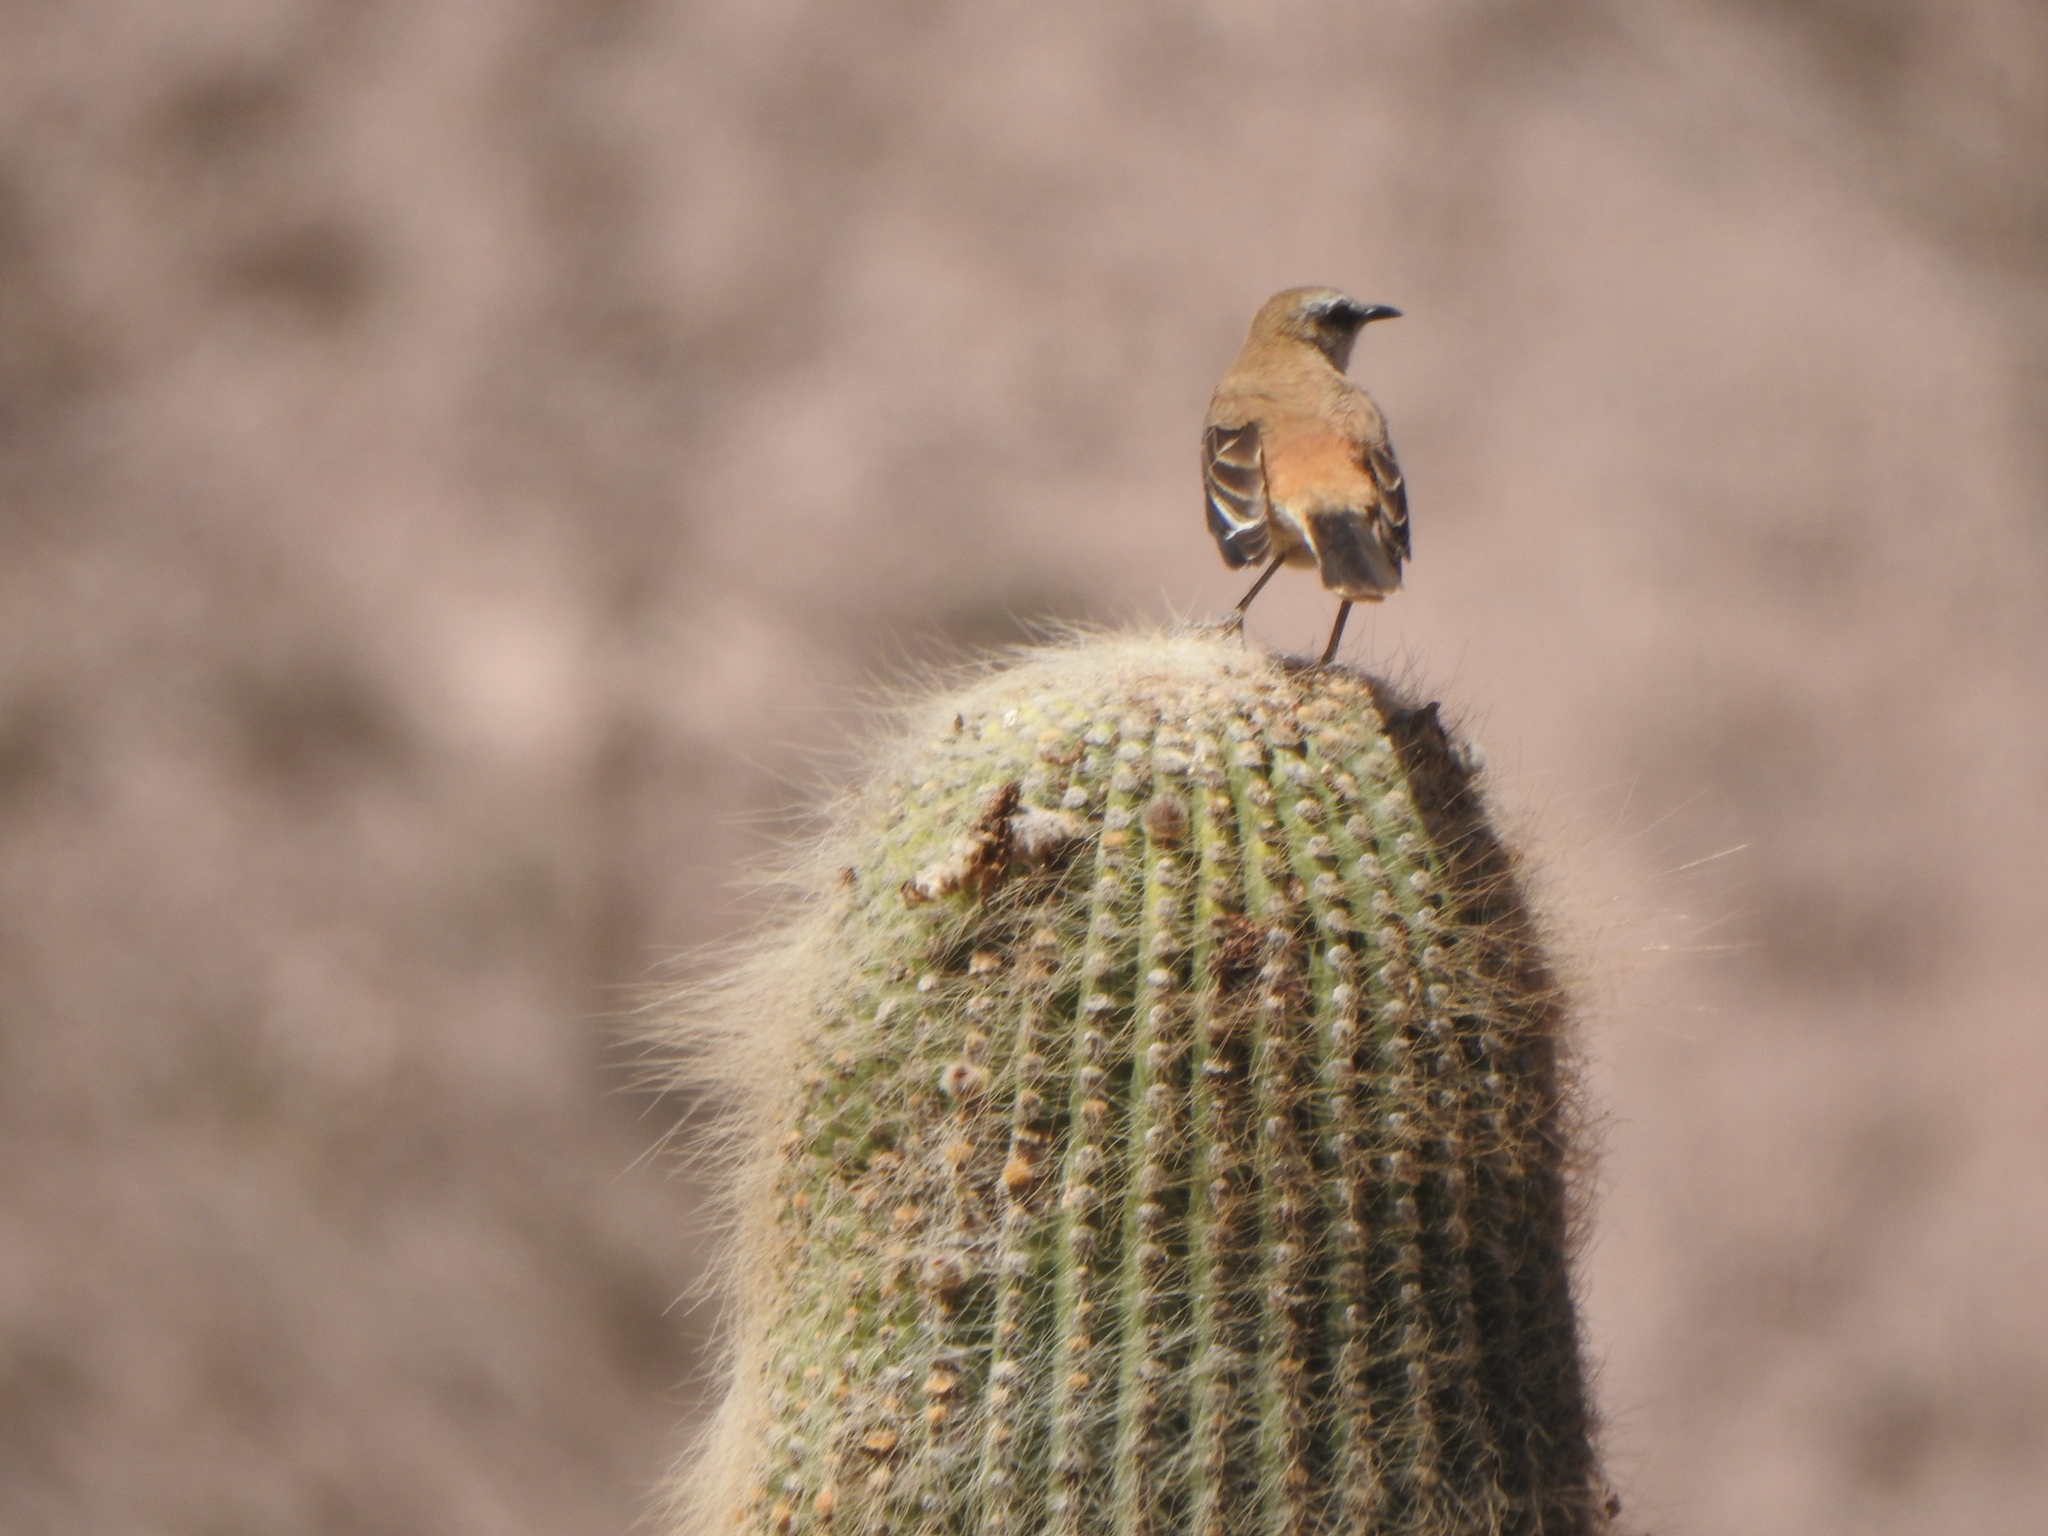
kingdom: Plantae
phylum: Tracheophyta
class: Magnoliopsida
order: Caryophyllales
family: Cactaceae
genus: Leucostele
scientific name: Leucostele atacamensis
